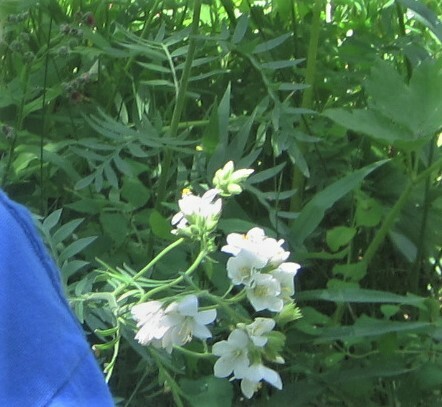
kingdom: Plantae
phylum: Tracheophyta
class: Magnoliopsida
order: Ericales
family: Polemoniaceae
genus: Polemonium
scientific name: Polemonium foliosissimum
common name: Leafy jacob's-ladder
